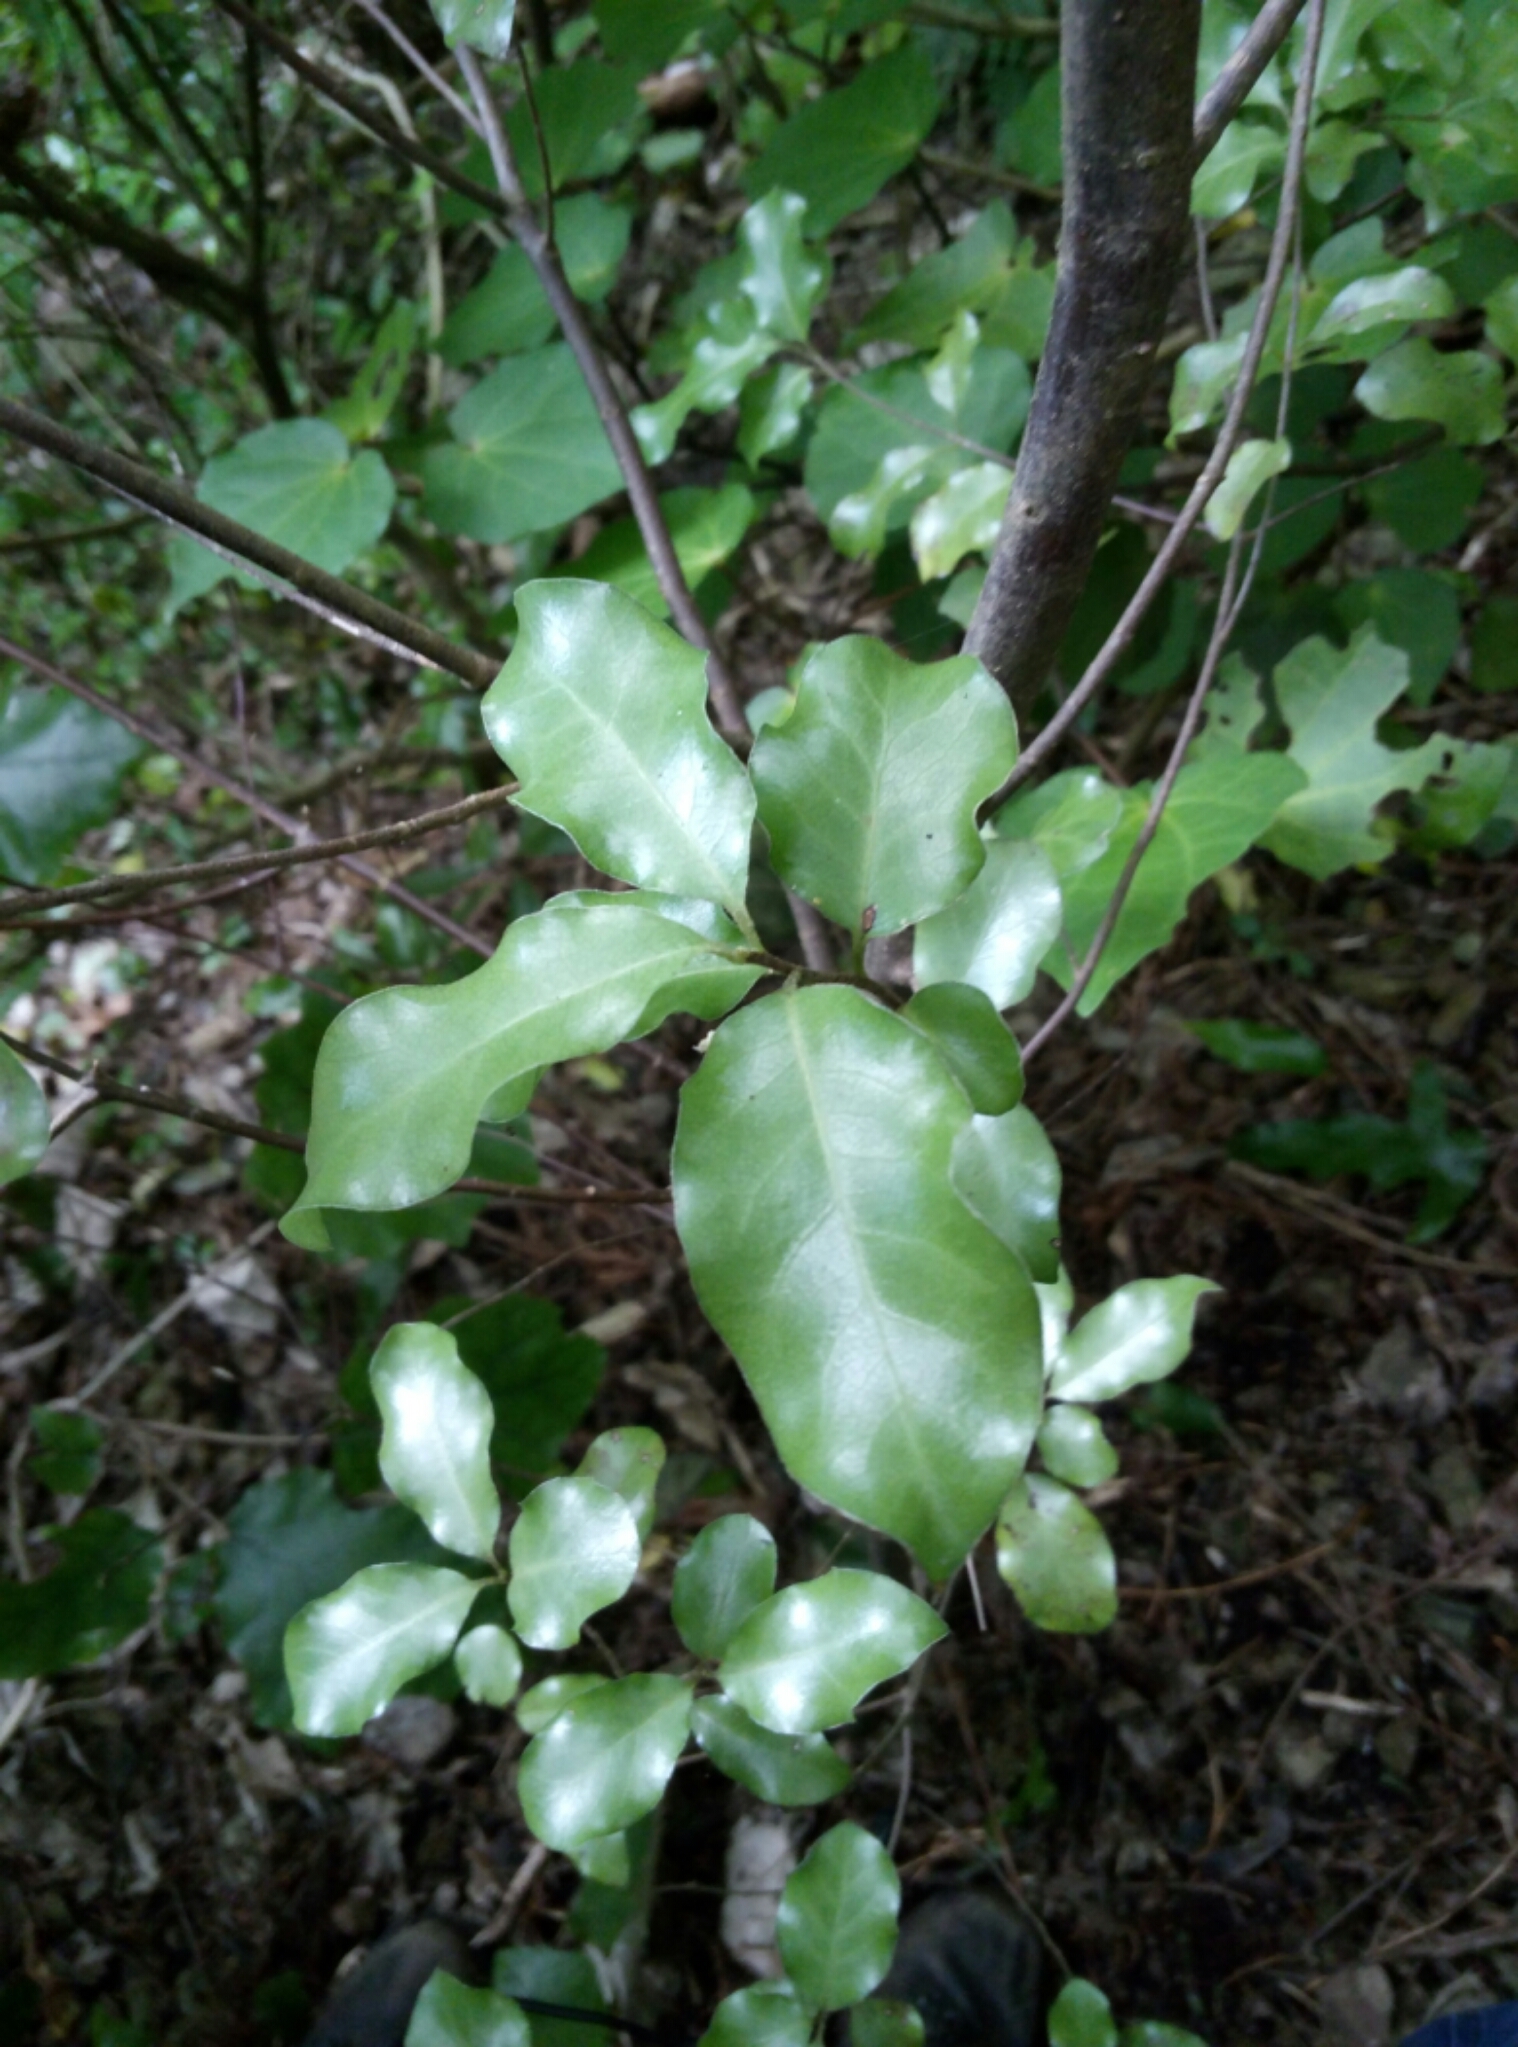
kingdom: Plantae
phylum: Tracheophyta
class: Magnoliopsida
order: Apiales
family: Pittosporaceae
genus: Pittosporum
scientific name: Pittosporum tenuifolium
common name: Kohuhu
